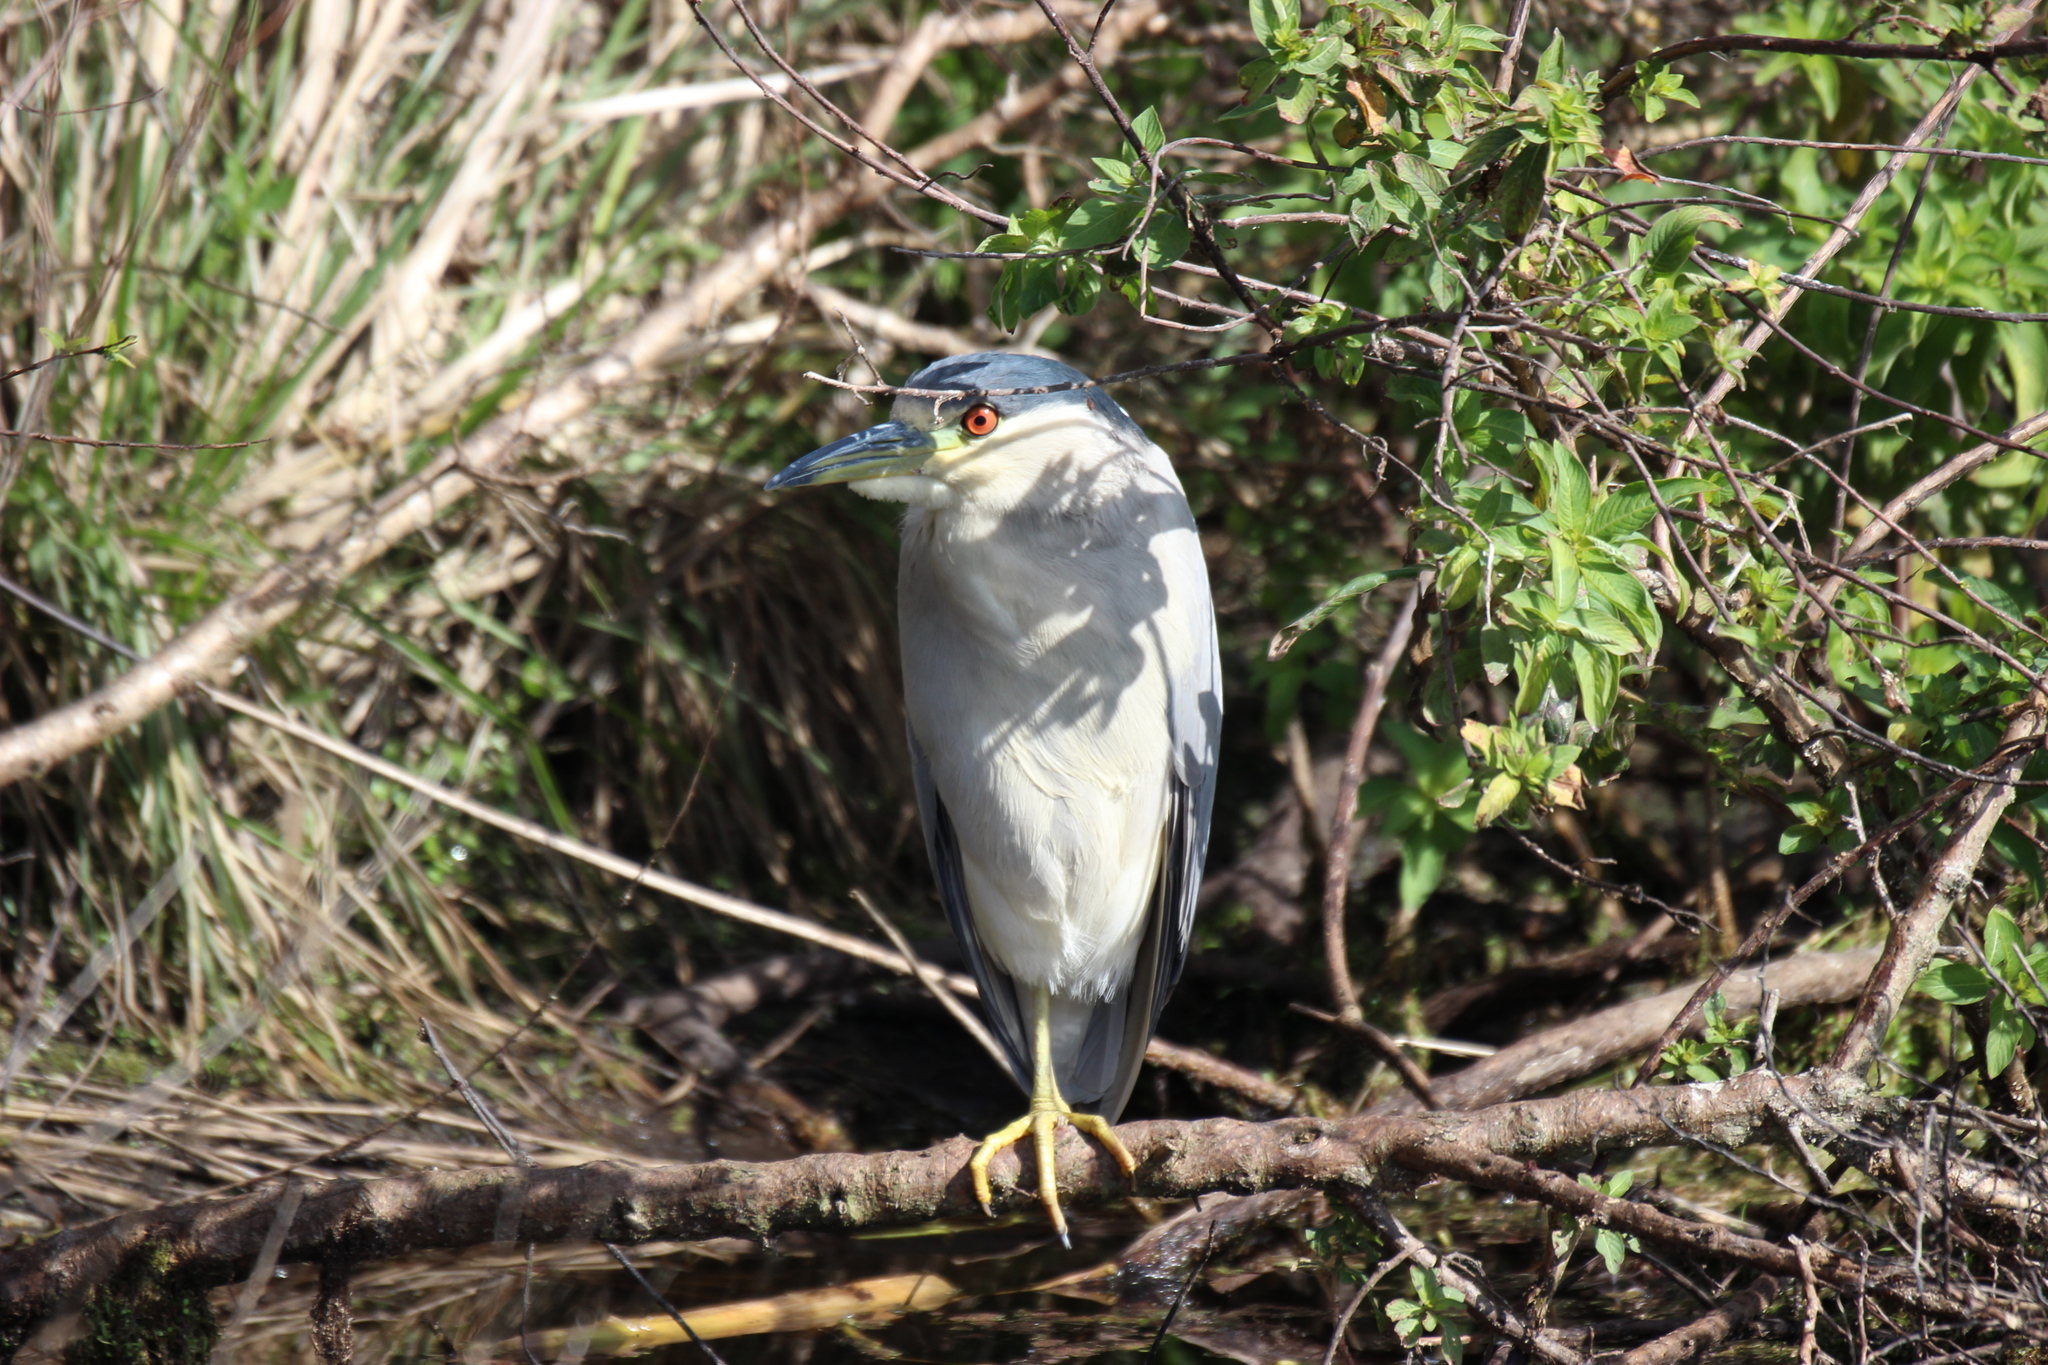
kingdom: Animalia
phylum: Chordata
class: Aves
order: Pelecaniformes
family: Ardeidae
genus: Nycticorax
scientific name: Nycticorax nycticorax
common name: Black-crowned night heron
